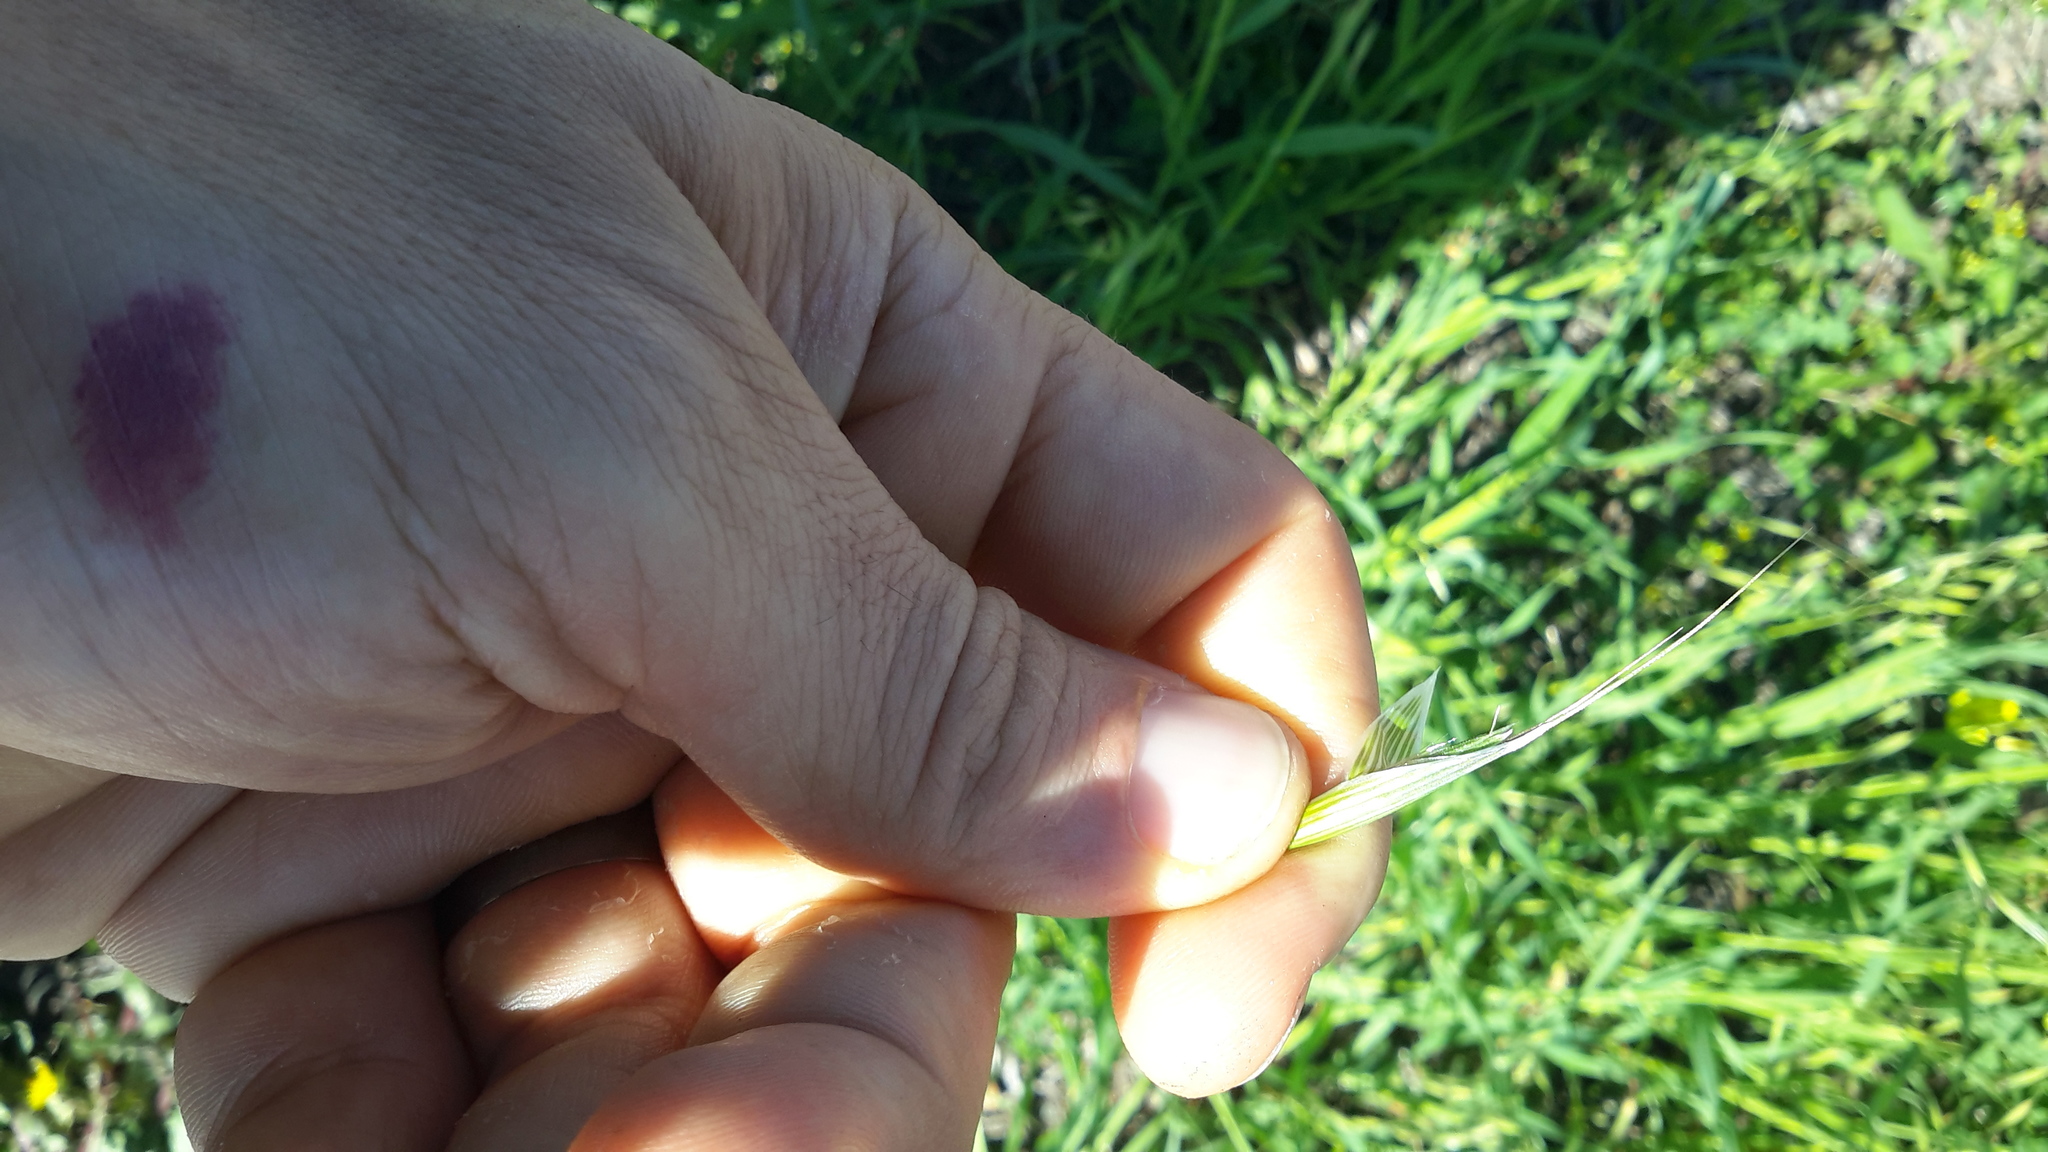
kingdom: Plantae
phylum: Tracheophyta
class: Liliopsida
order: Poales
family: Poaceae
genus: Avena
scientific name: Avena barbata
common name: Slender oat
